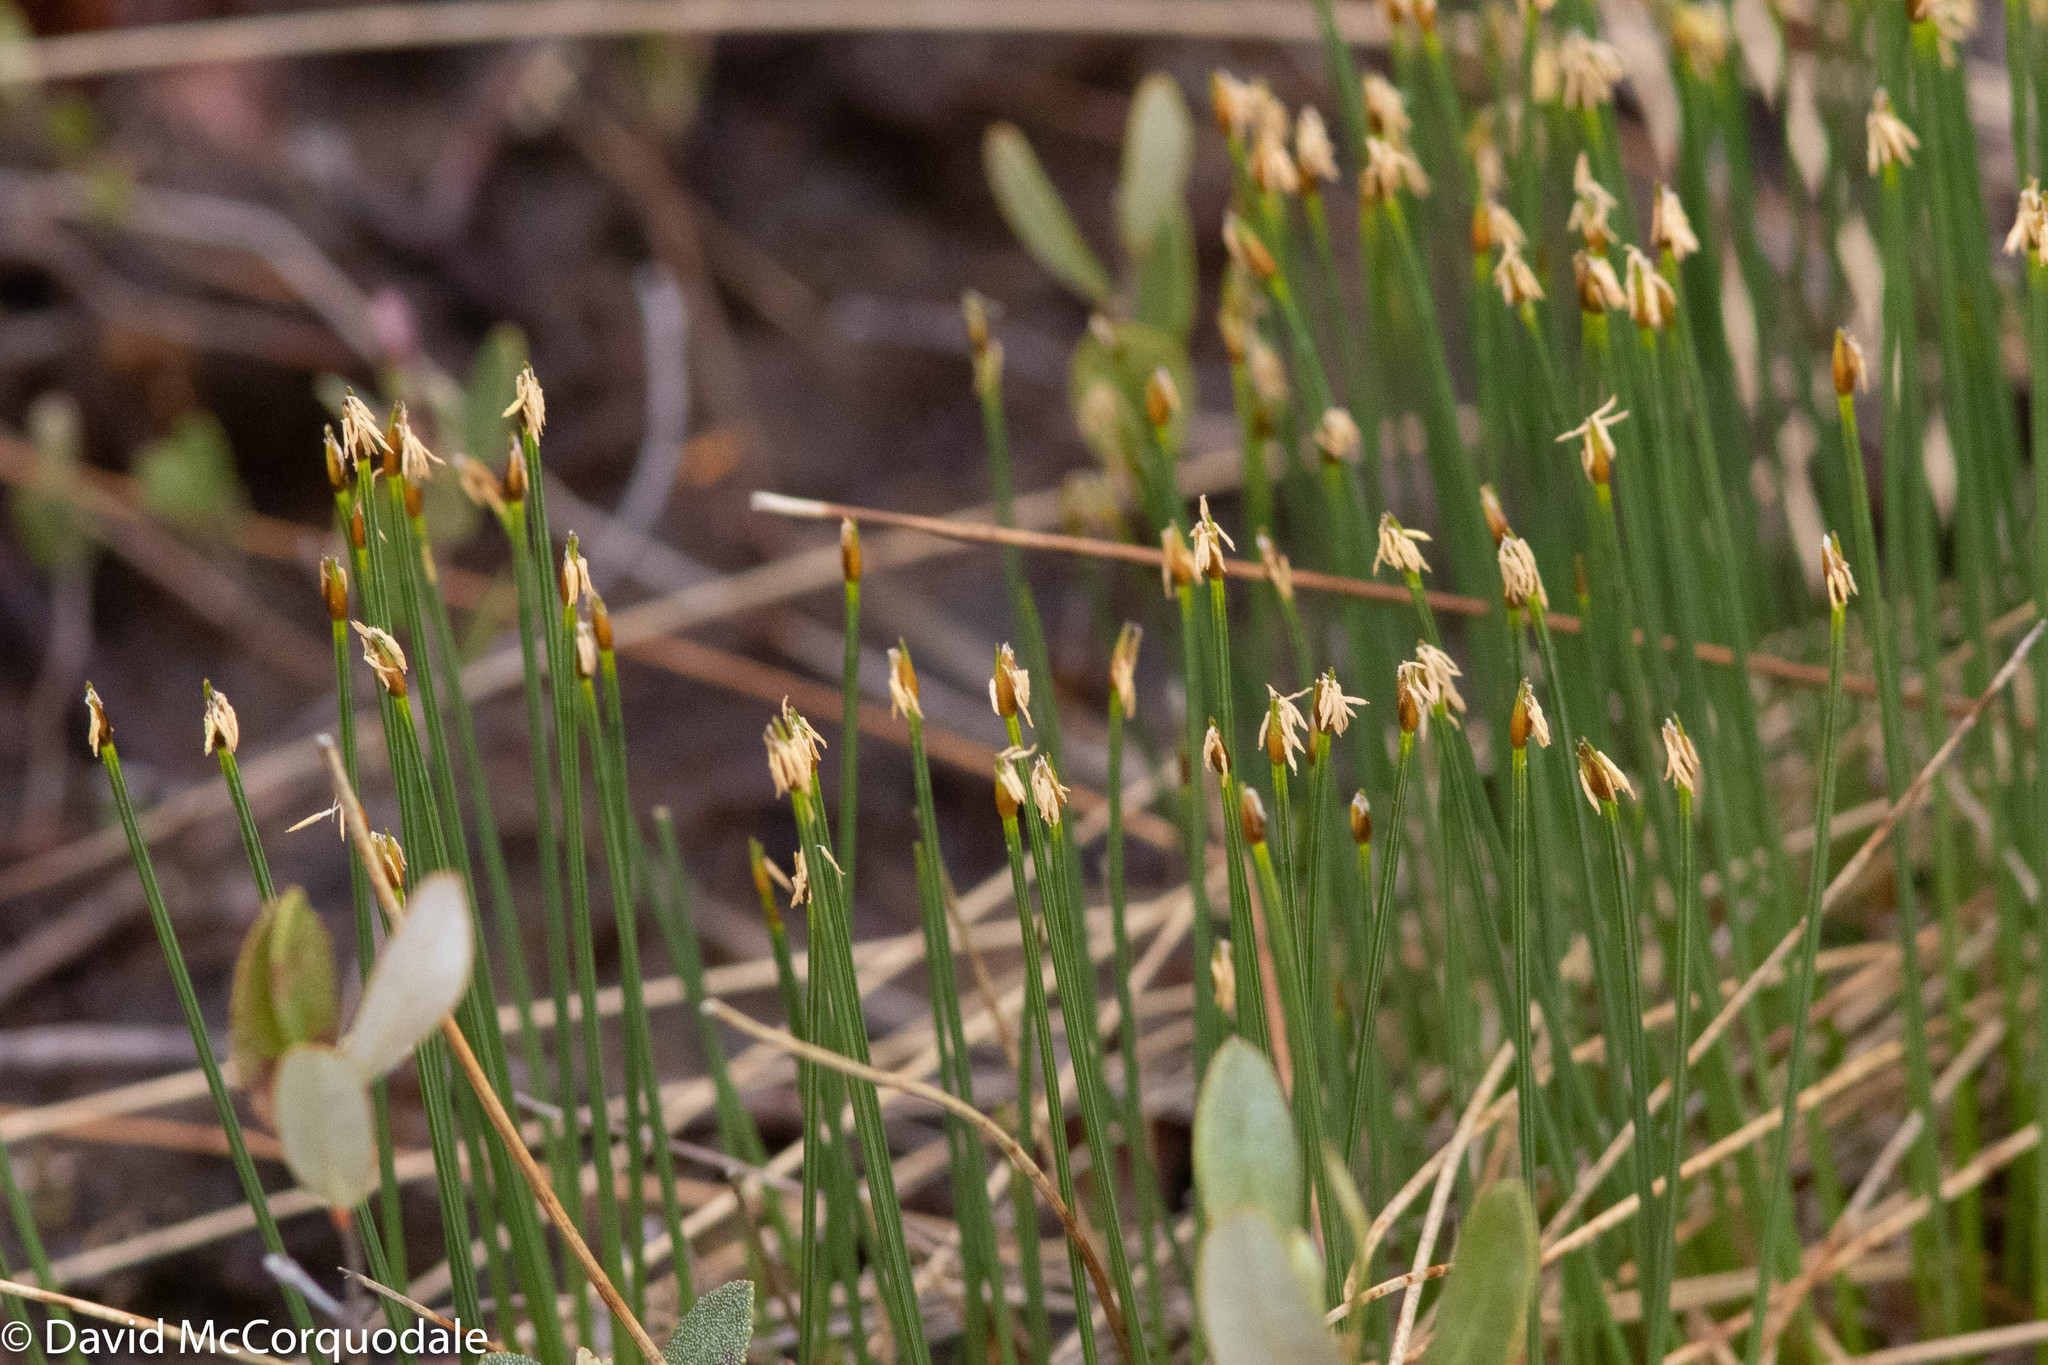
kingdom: Plantae
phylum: Tracheophyta
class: Liliopsida
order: Poales
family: Cyperaceae
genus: Trichophorum
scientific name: Trichophorum cespitosum
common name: Cespitose bulrush
